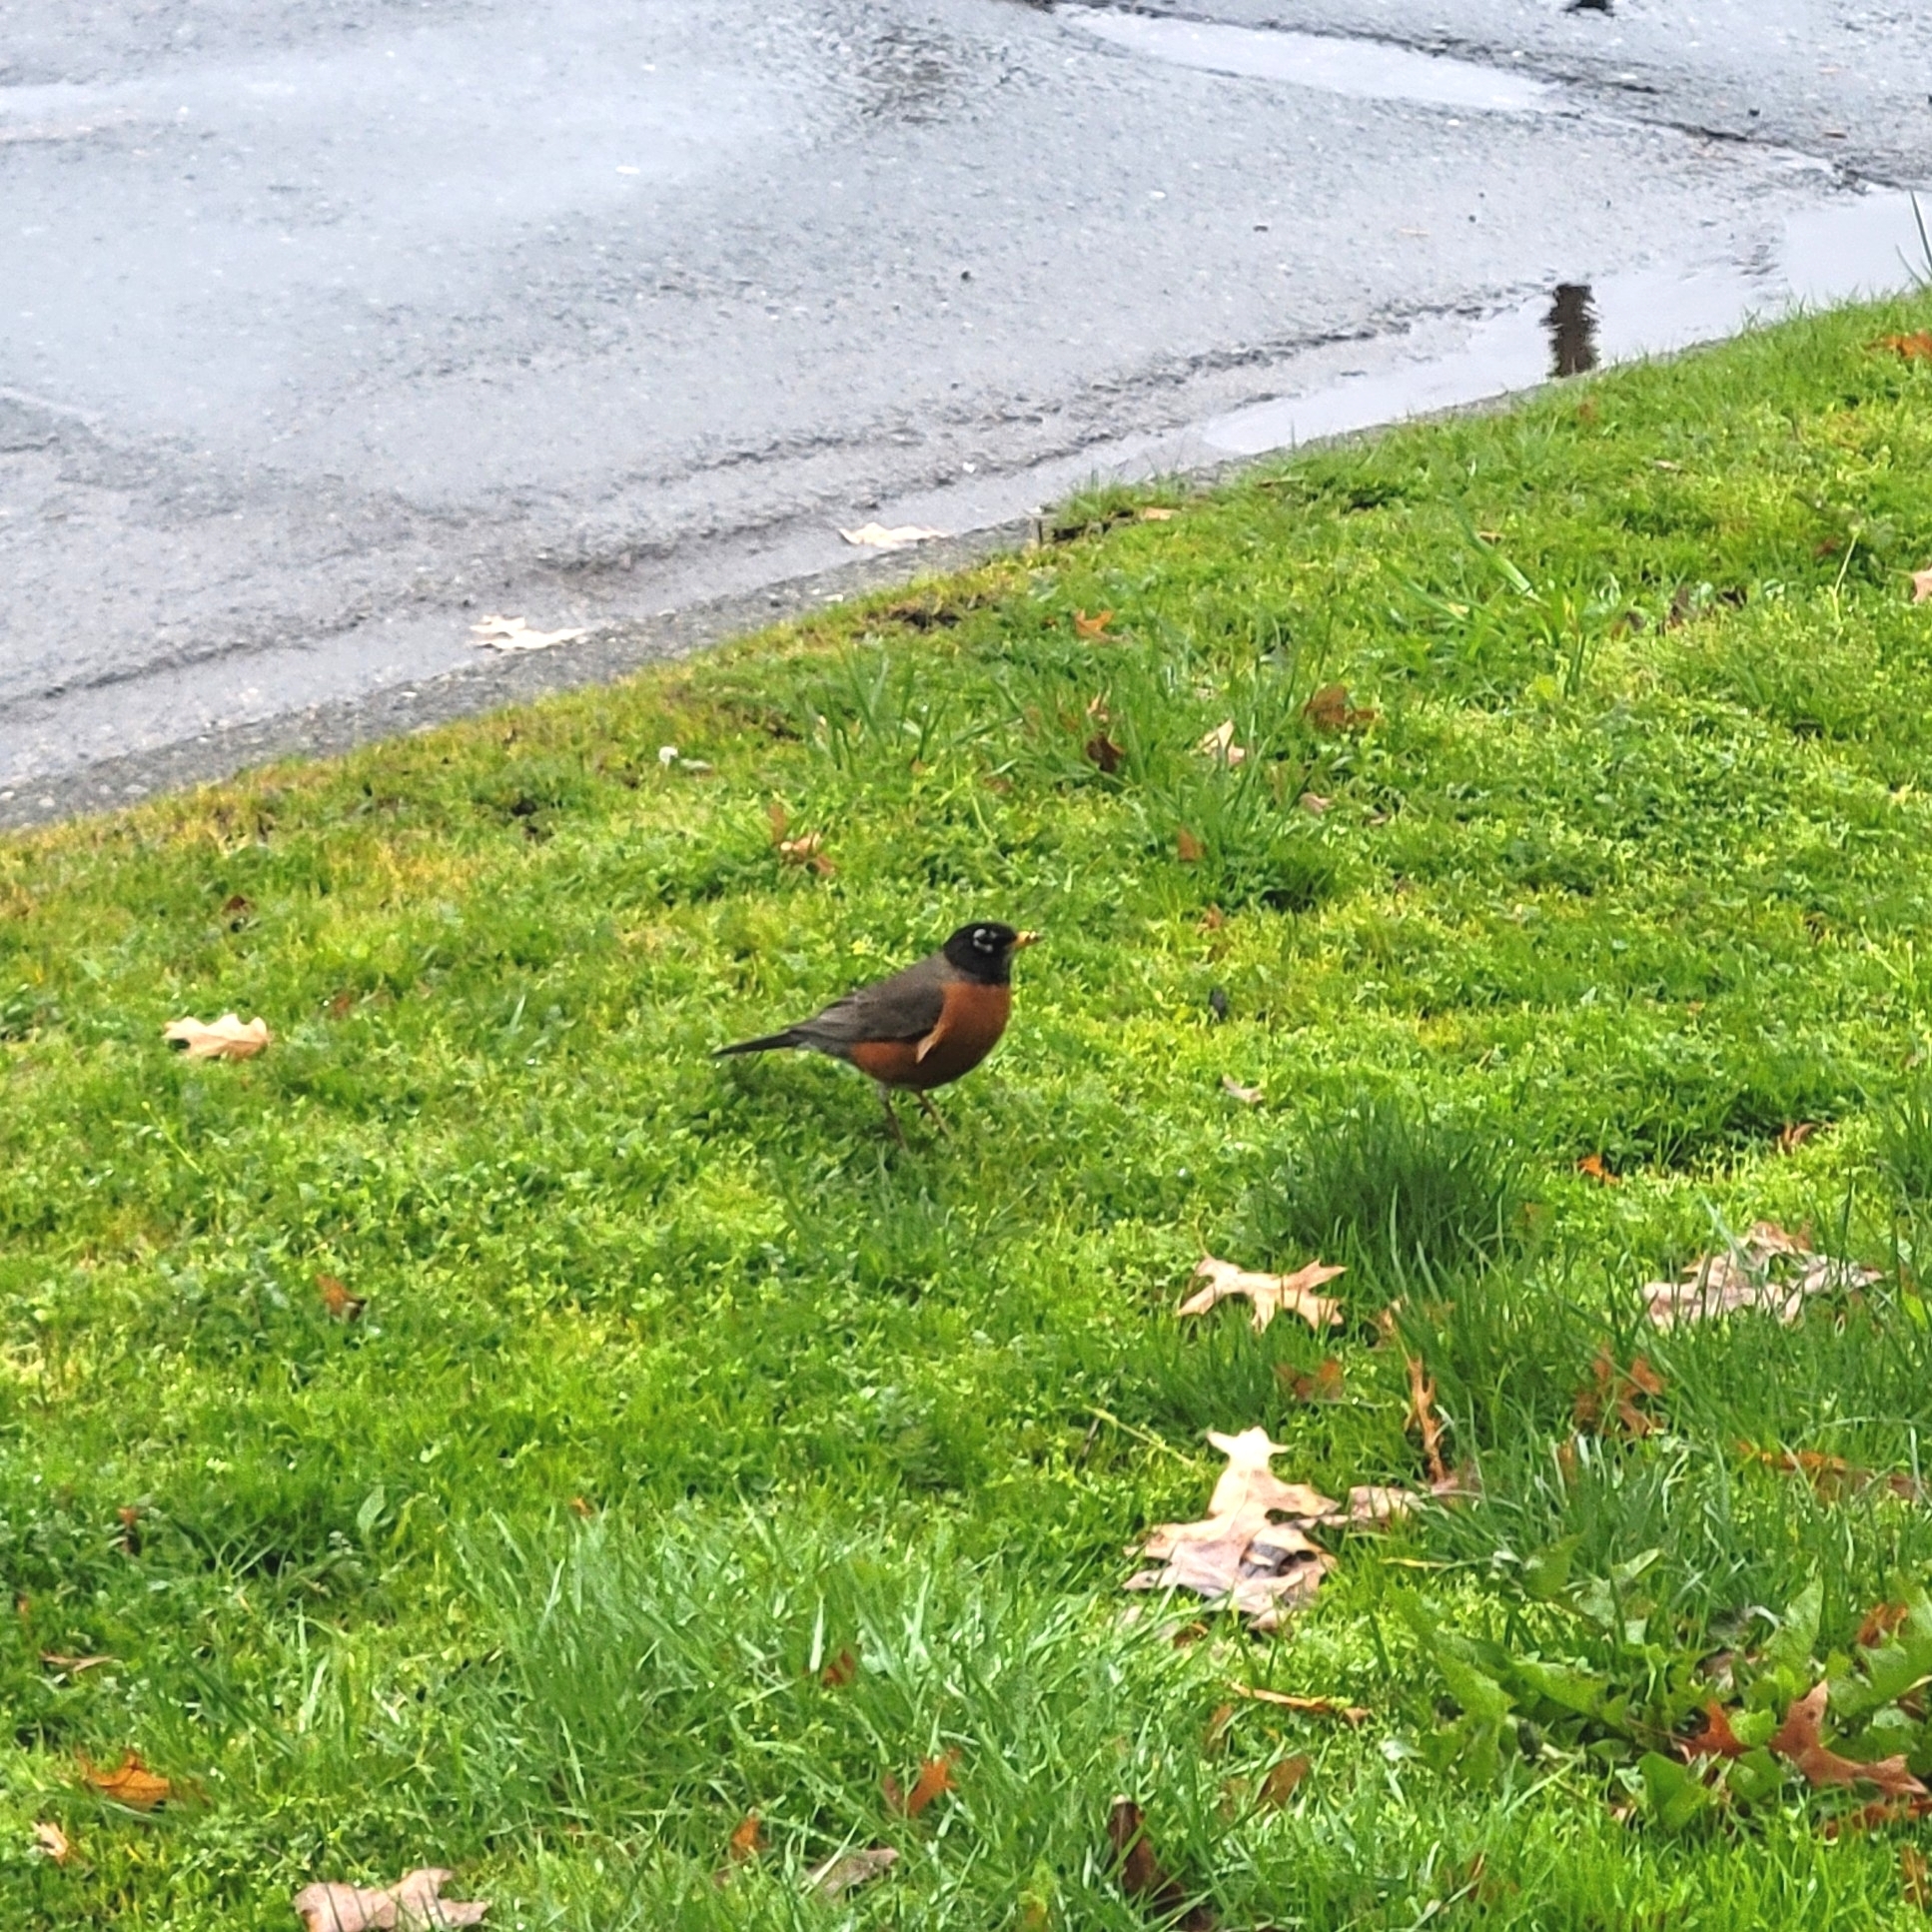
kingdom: Animalia
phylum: Chordata
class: Aves
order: Passeriformes
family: Turdidae
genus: Turdus
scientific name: Turdus migratorius
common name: American robin
